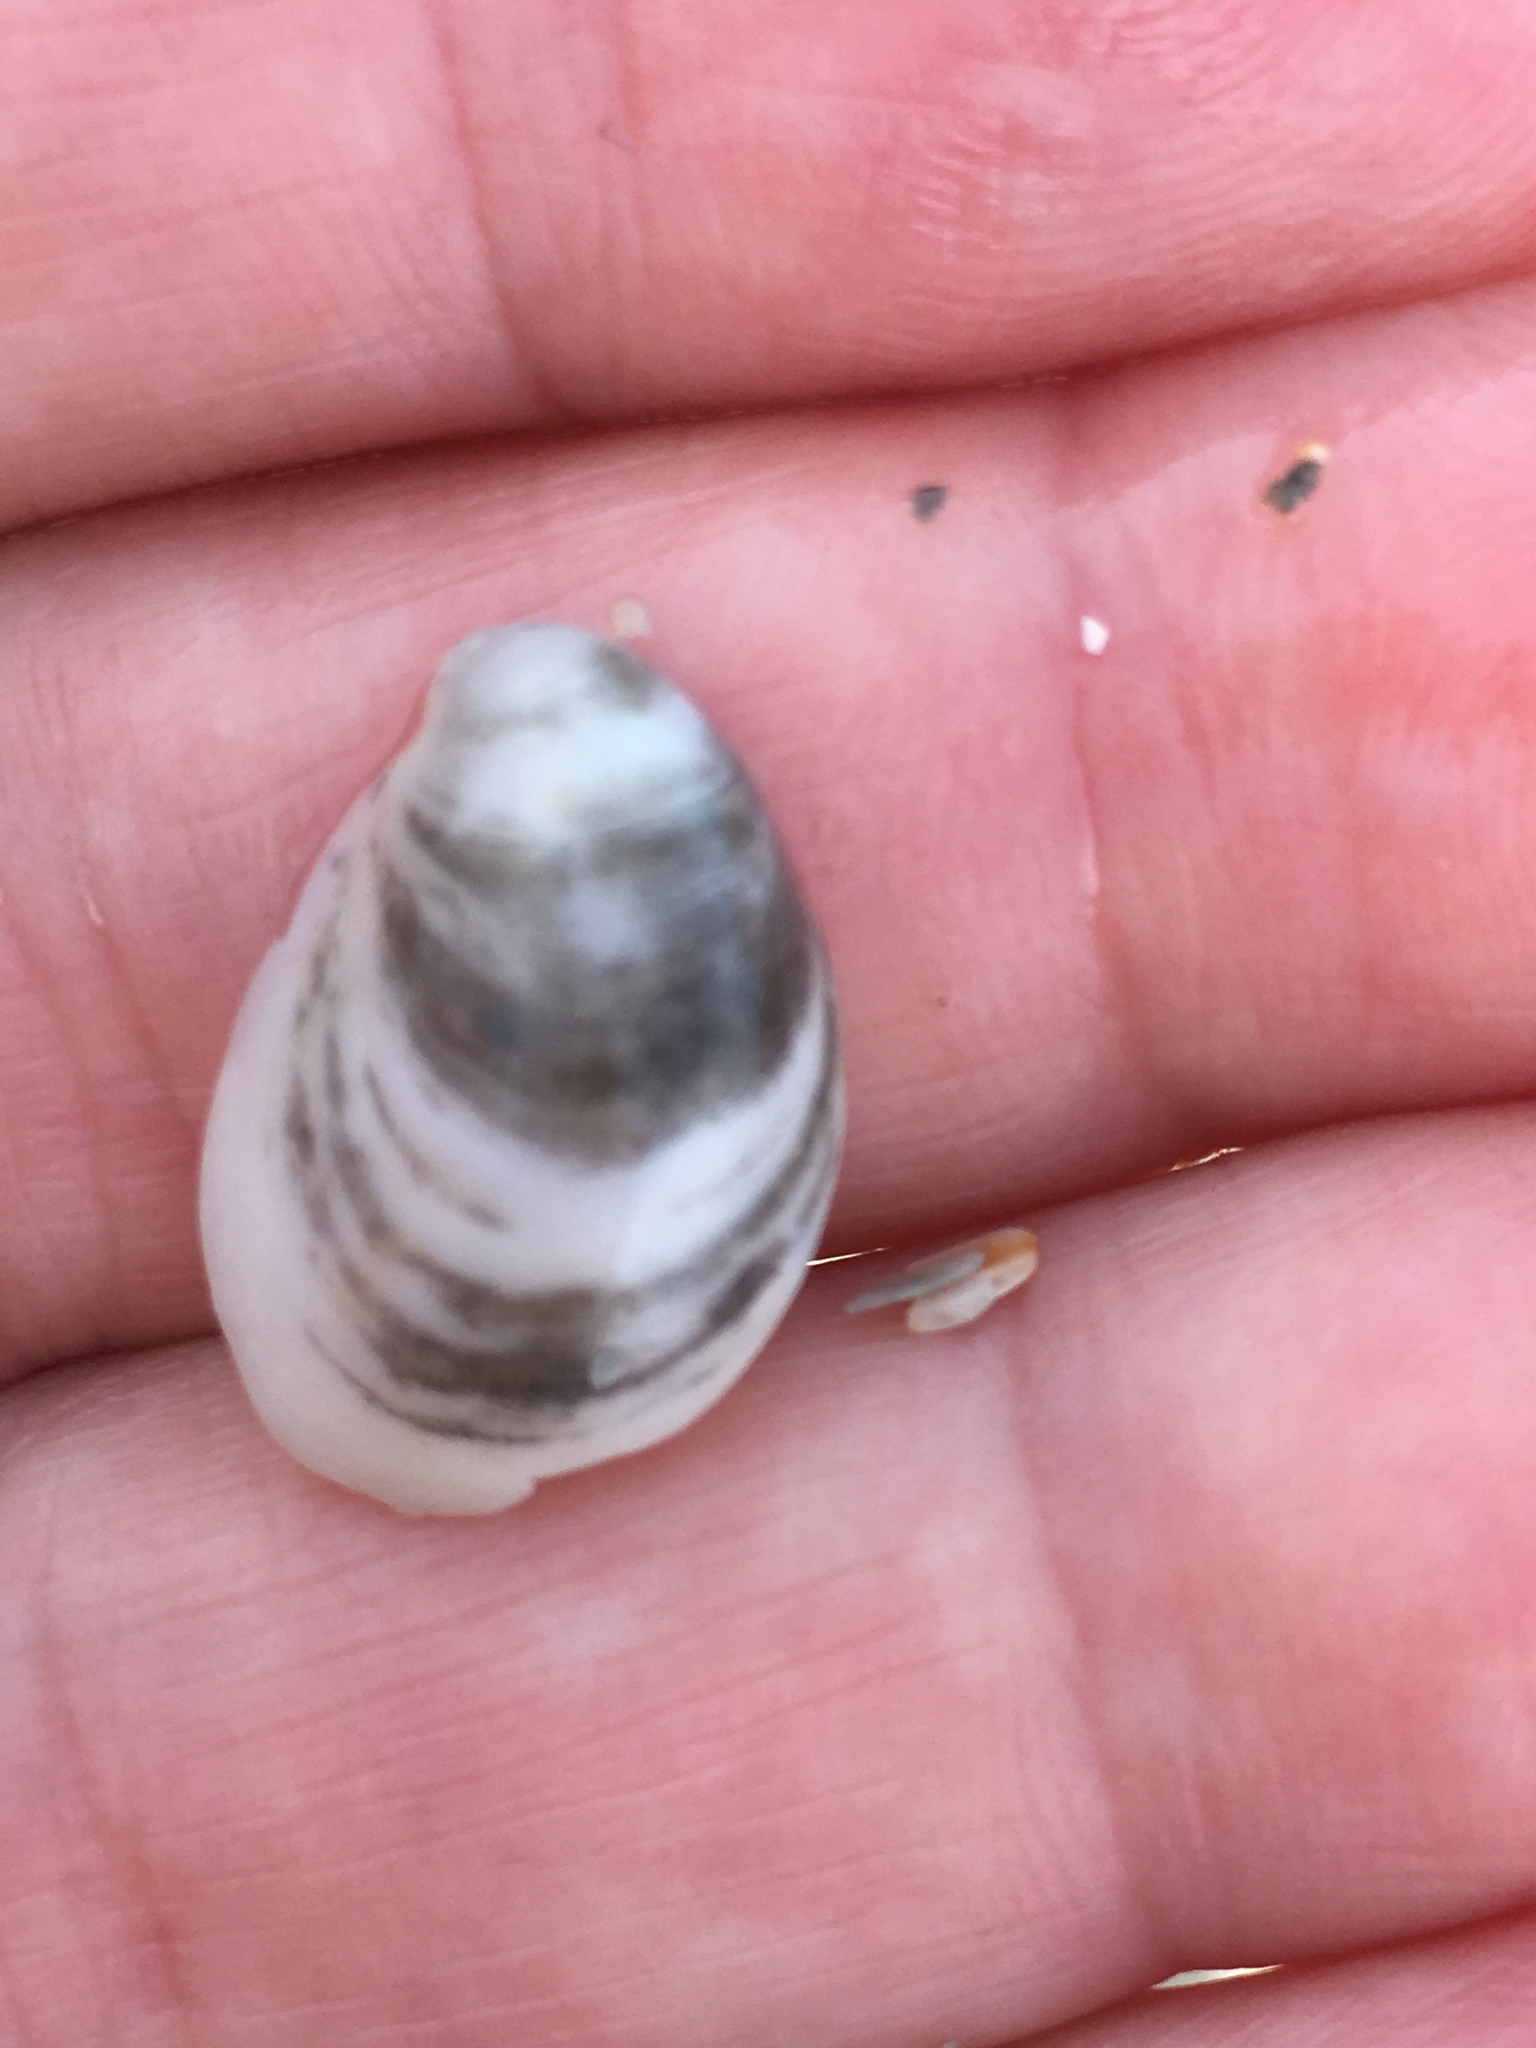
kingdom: Animalia
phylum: Mollusca
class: Gastropoda
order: Littorinimorpha
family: Calyptraeidae
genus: Crepidula
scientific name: Crepidula fornicata
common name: Slipper limpet
